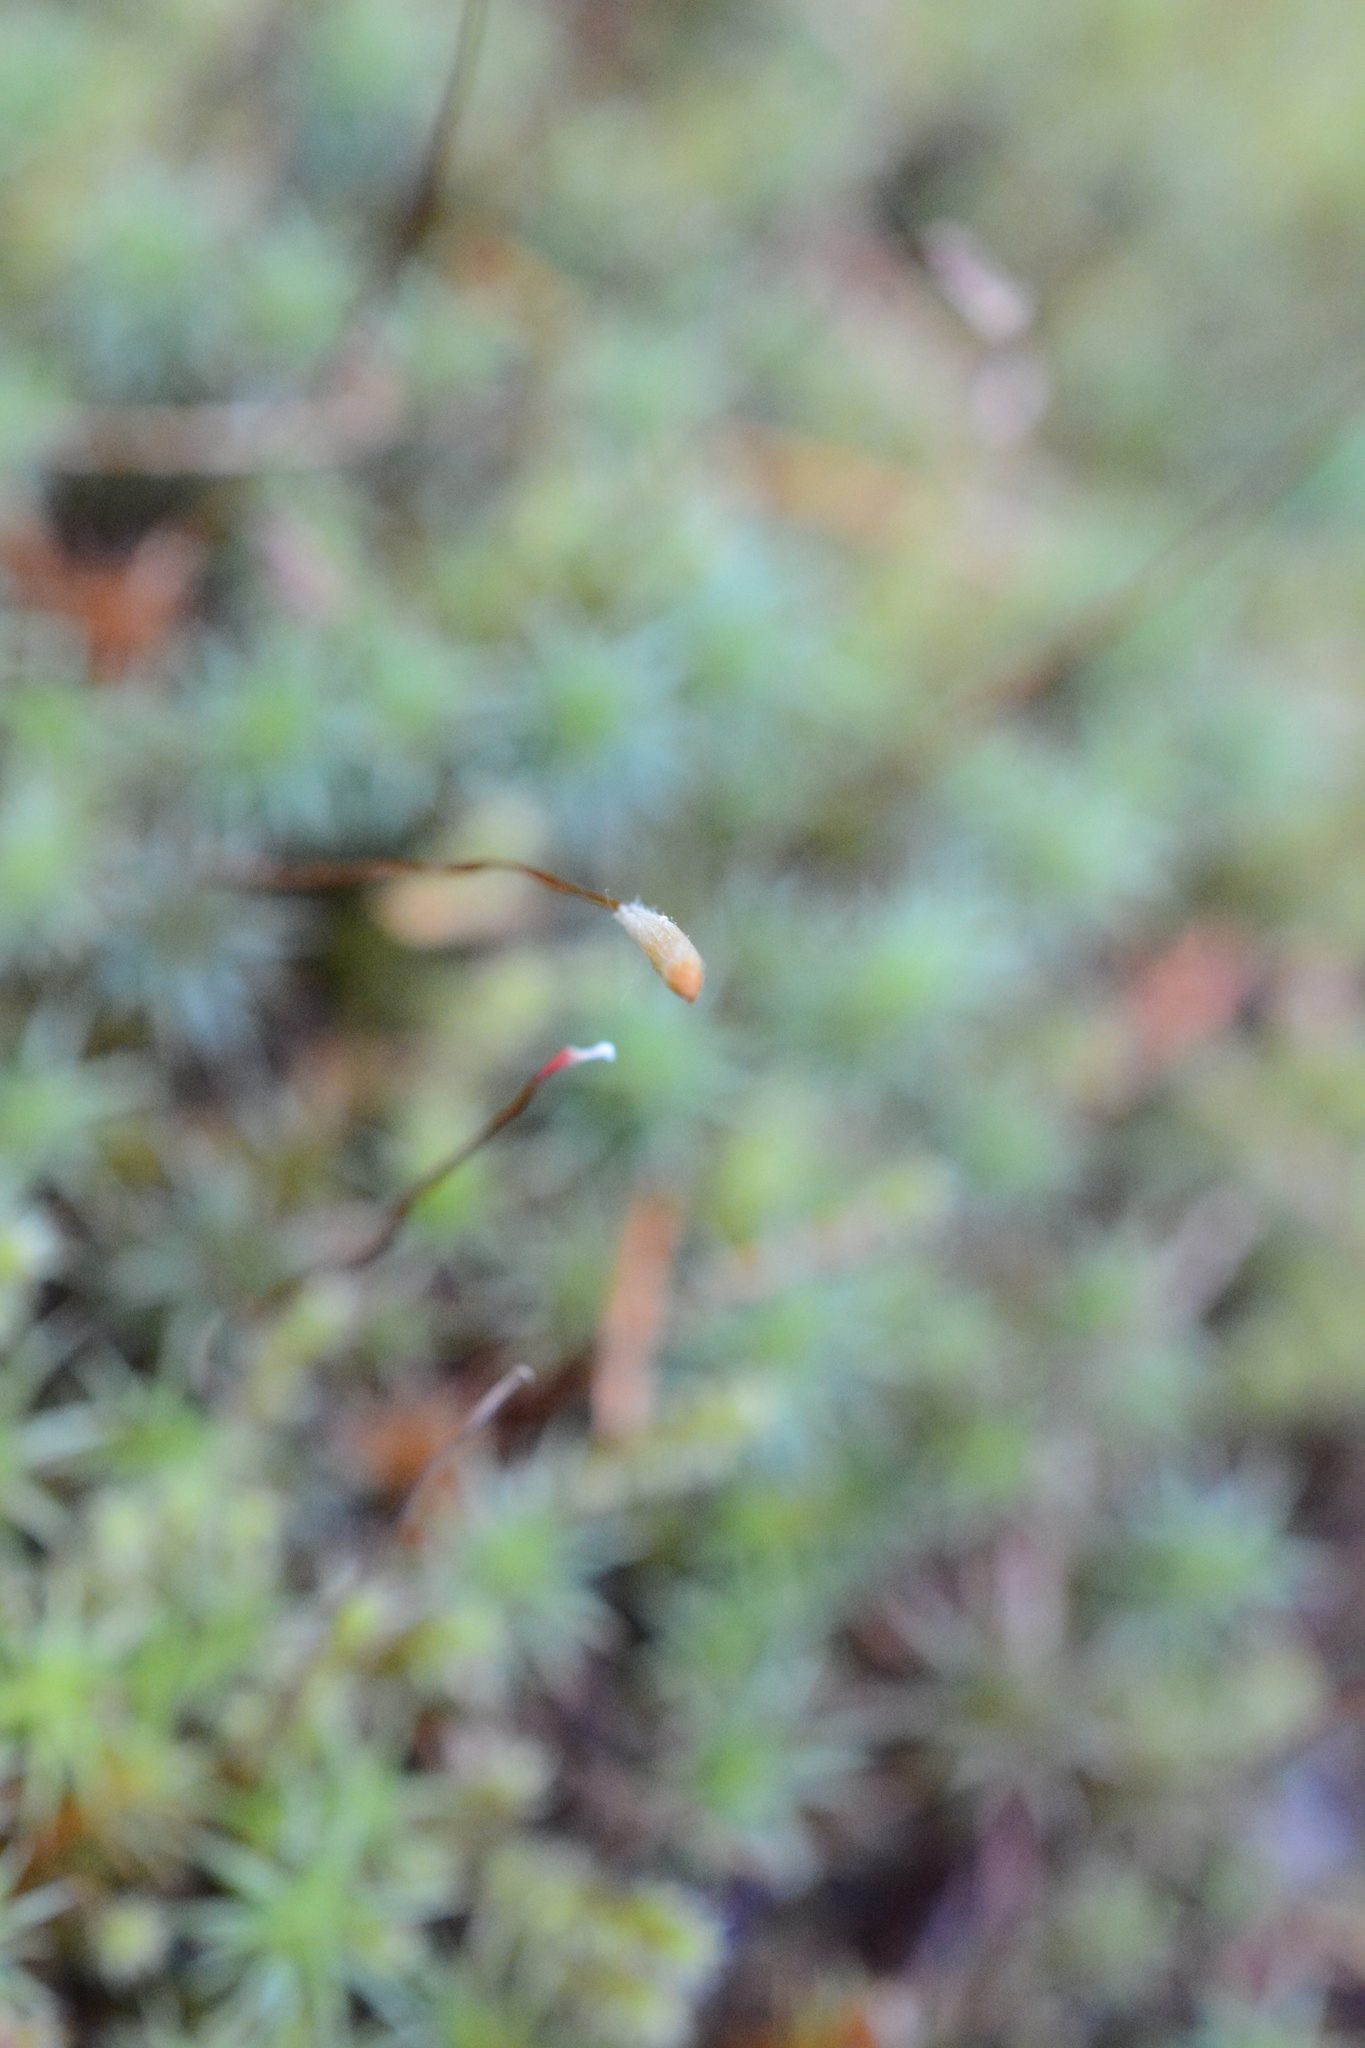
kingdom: Plantae
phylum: Bryophyta
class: Polytrichopsida
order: Polytrichales
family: Polytrichaceae
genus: Polytrichum
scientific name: Polytrichum juniperinum
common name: Juniper haircap moss
